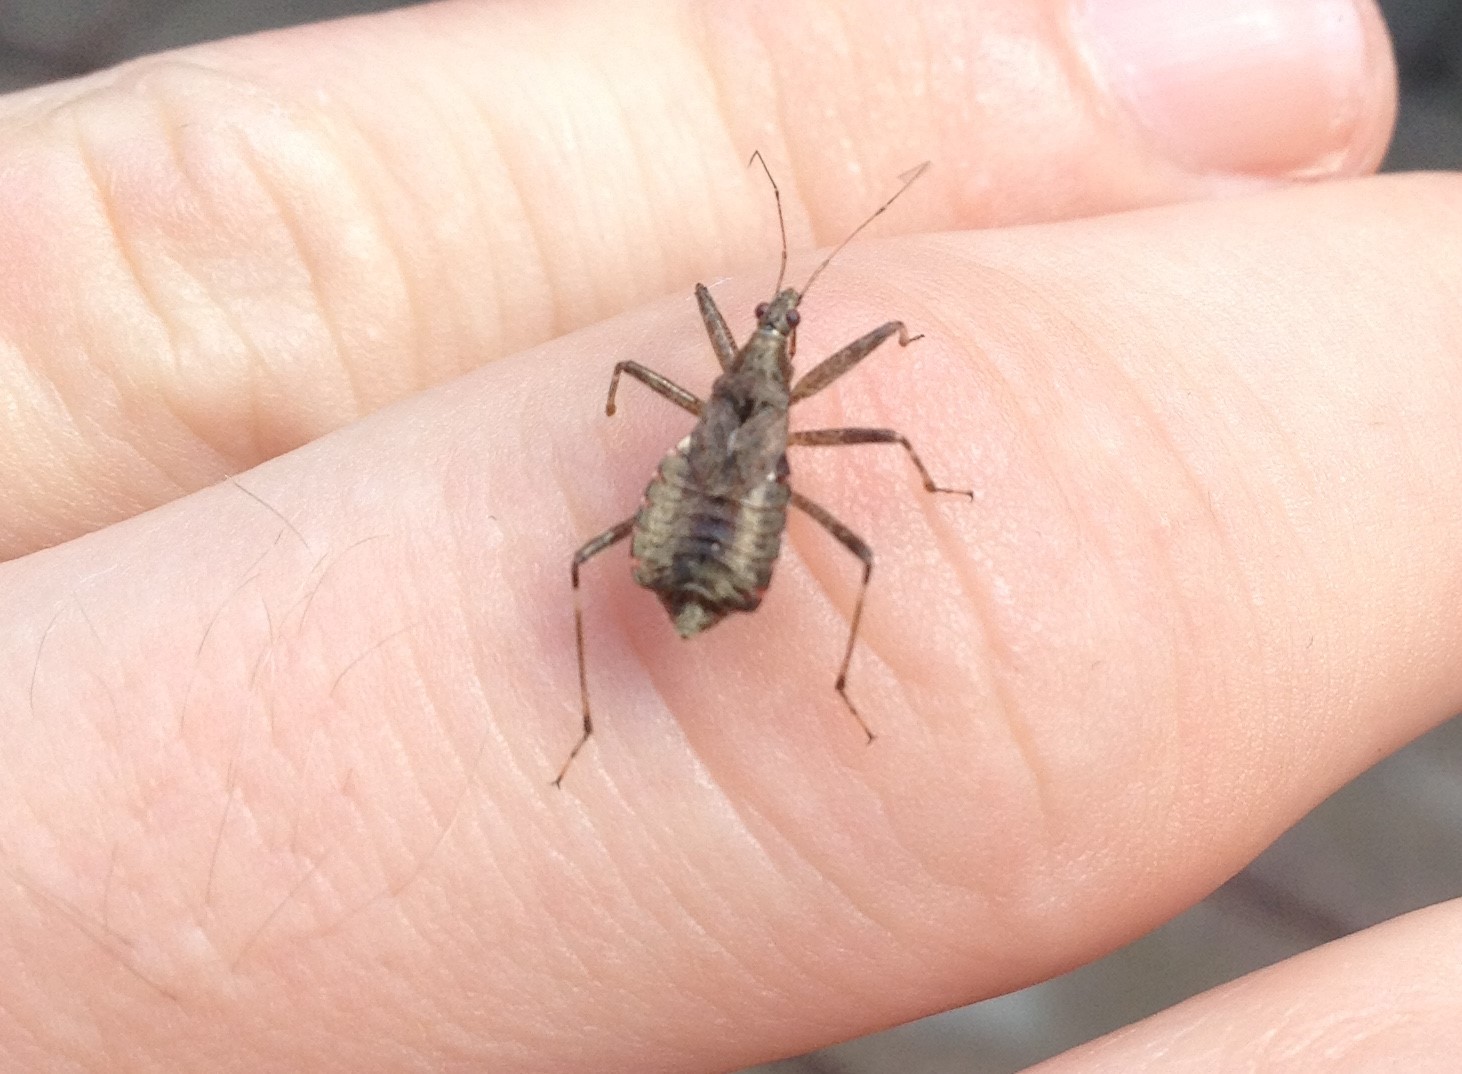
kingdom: Animalia
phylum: Arthropoda
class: Insecta
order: Hemiptera
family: Nabidae
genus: Himacerus
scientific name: Himacerus apterus
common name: Tree damsel bug
